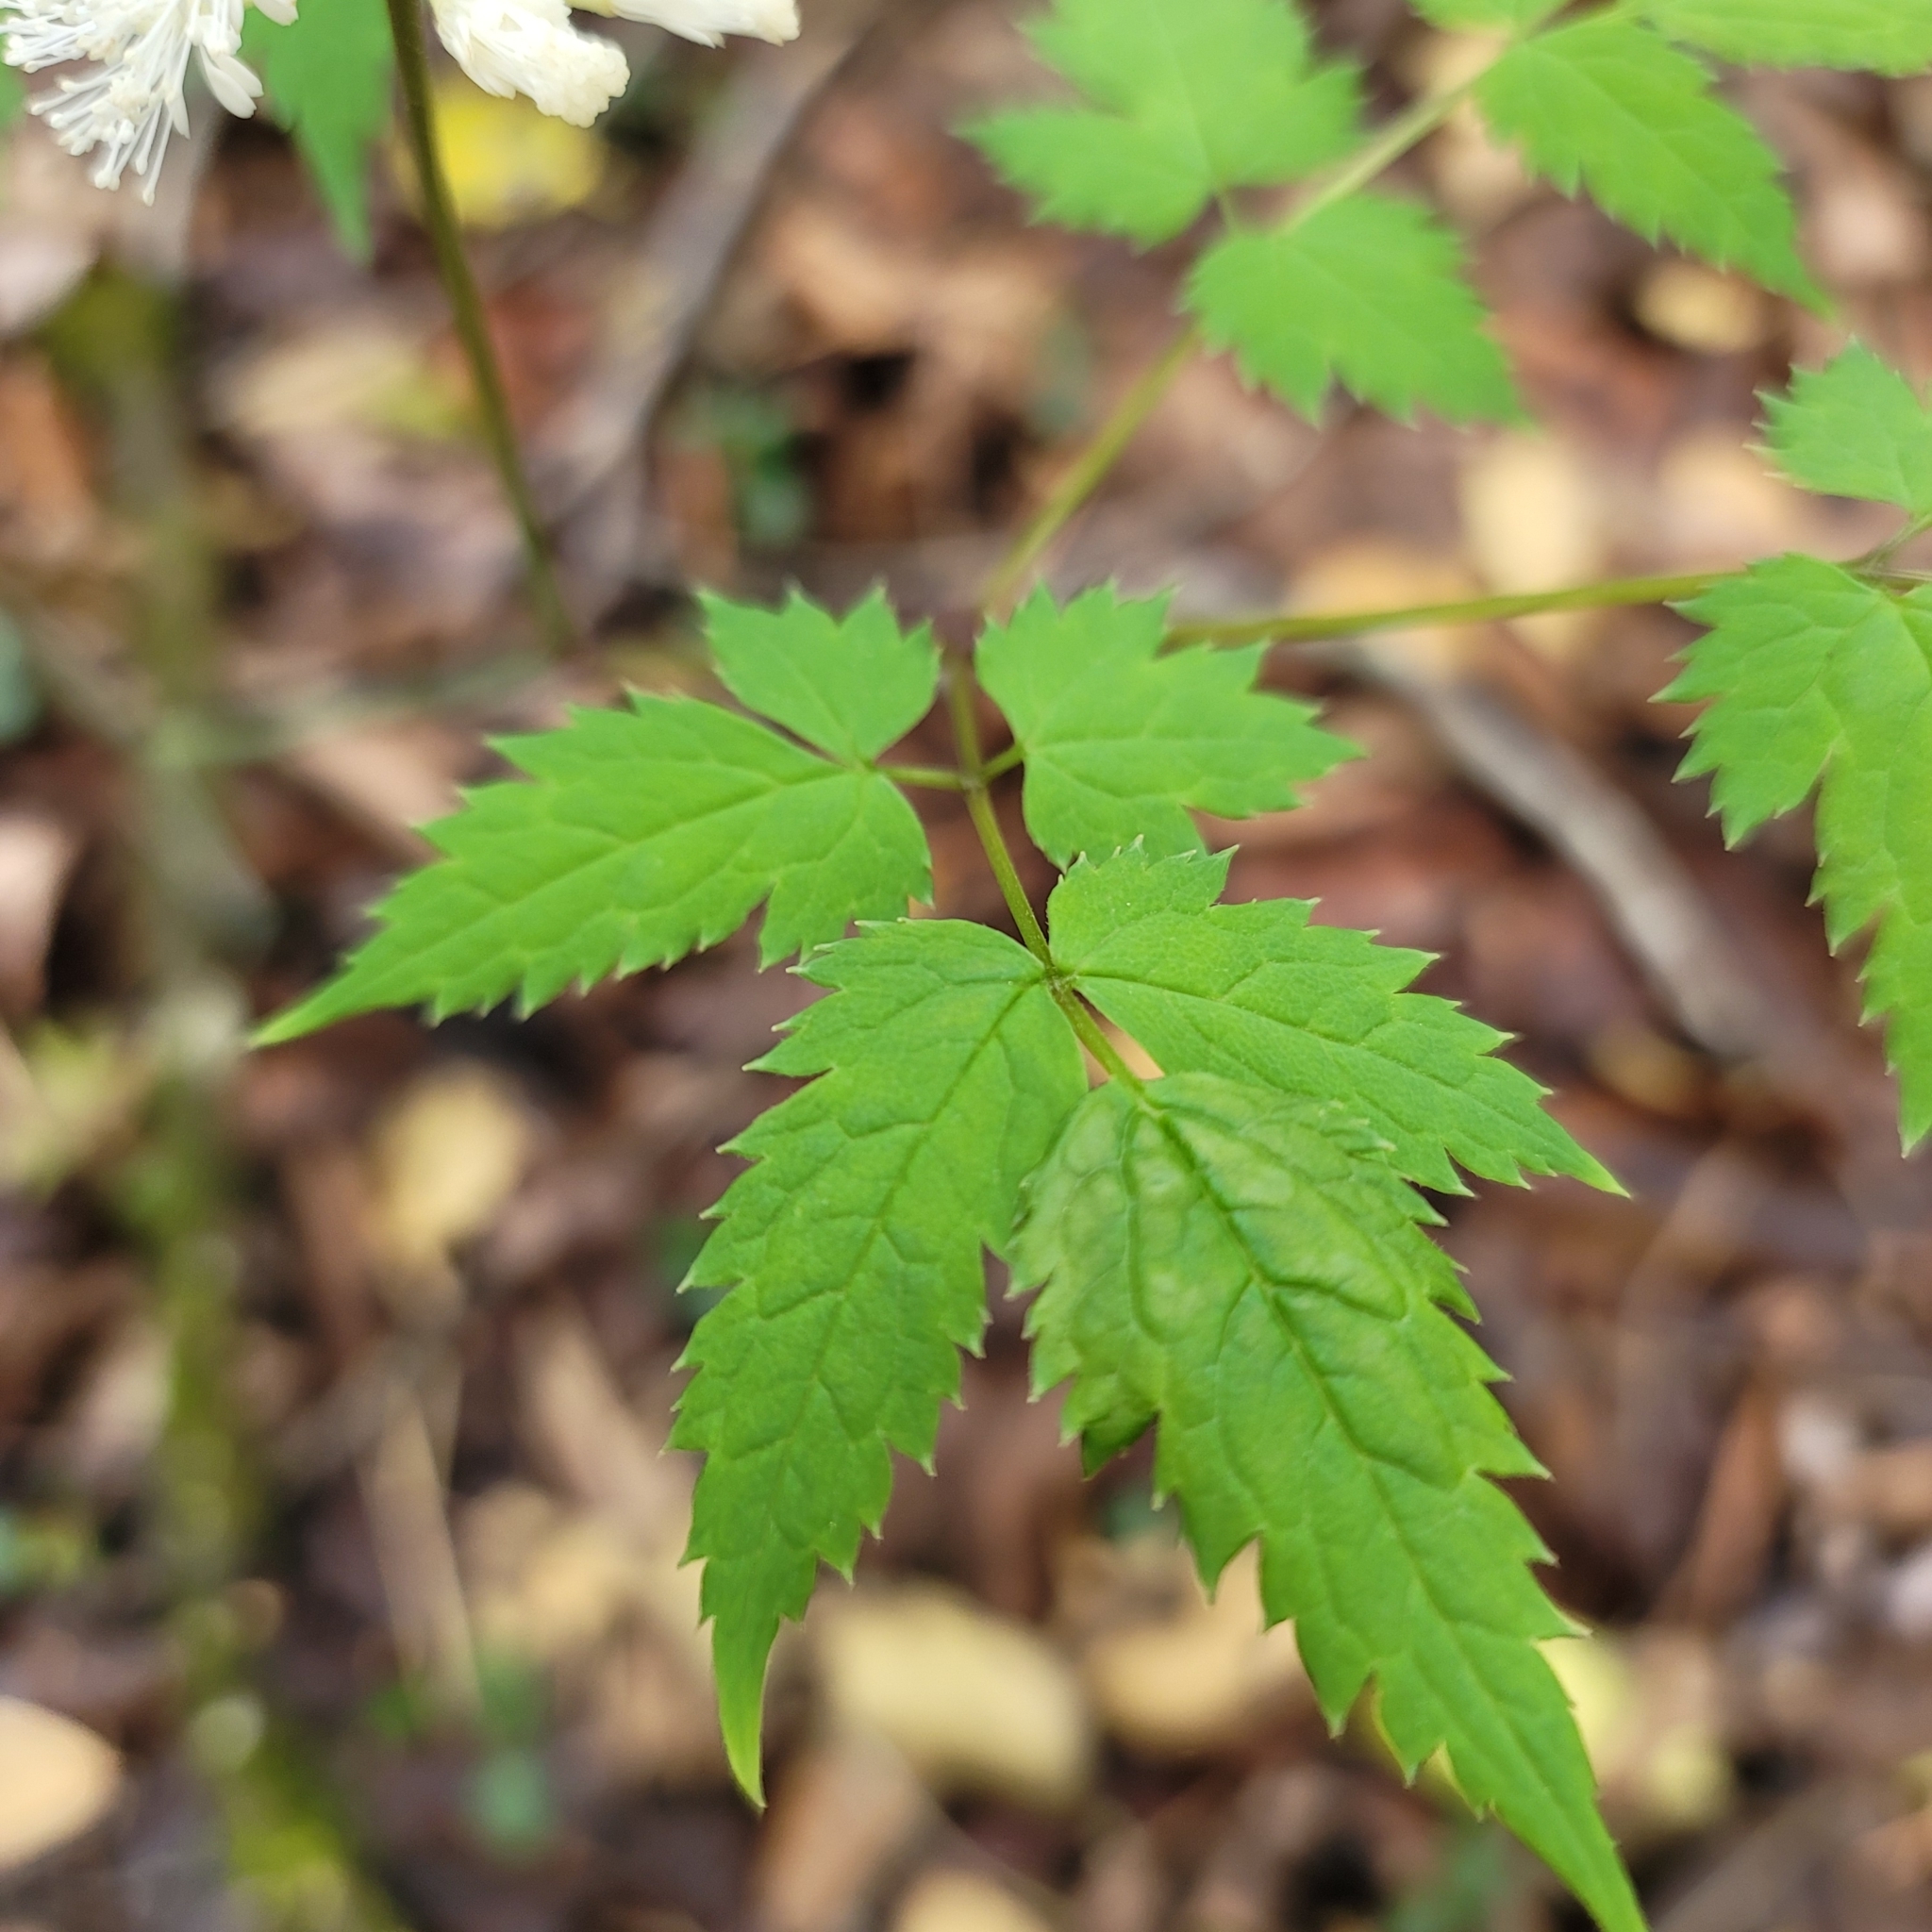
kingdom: Plantae
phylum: Tracheophyta
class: Magnoliopsida
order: Ranunculales
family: Ranunculaceae
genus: Actaea
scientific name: Actaea pachypoda
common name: Doll's-eyes
